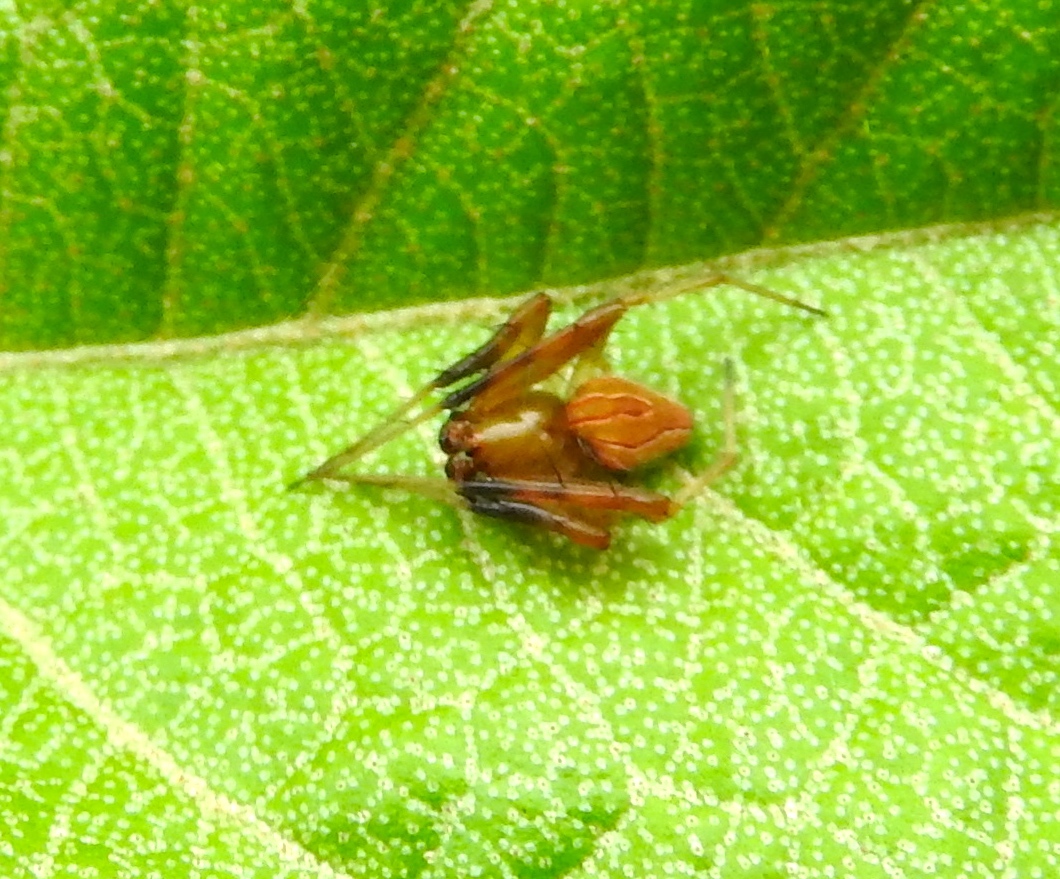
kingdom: Animalia
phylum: Arthropoda
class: Arachnida
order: Araneae
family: Araneidae
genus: Acacesia
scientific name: Acacesia
